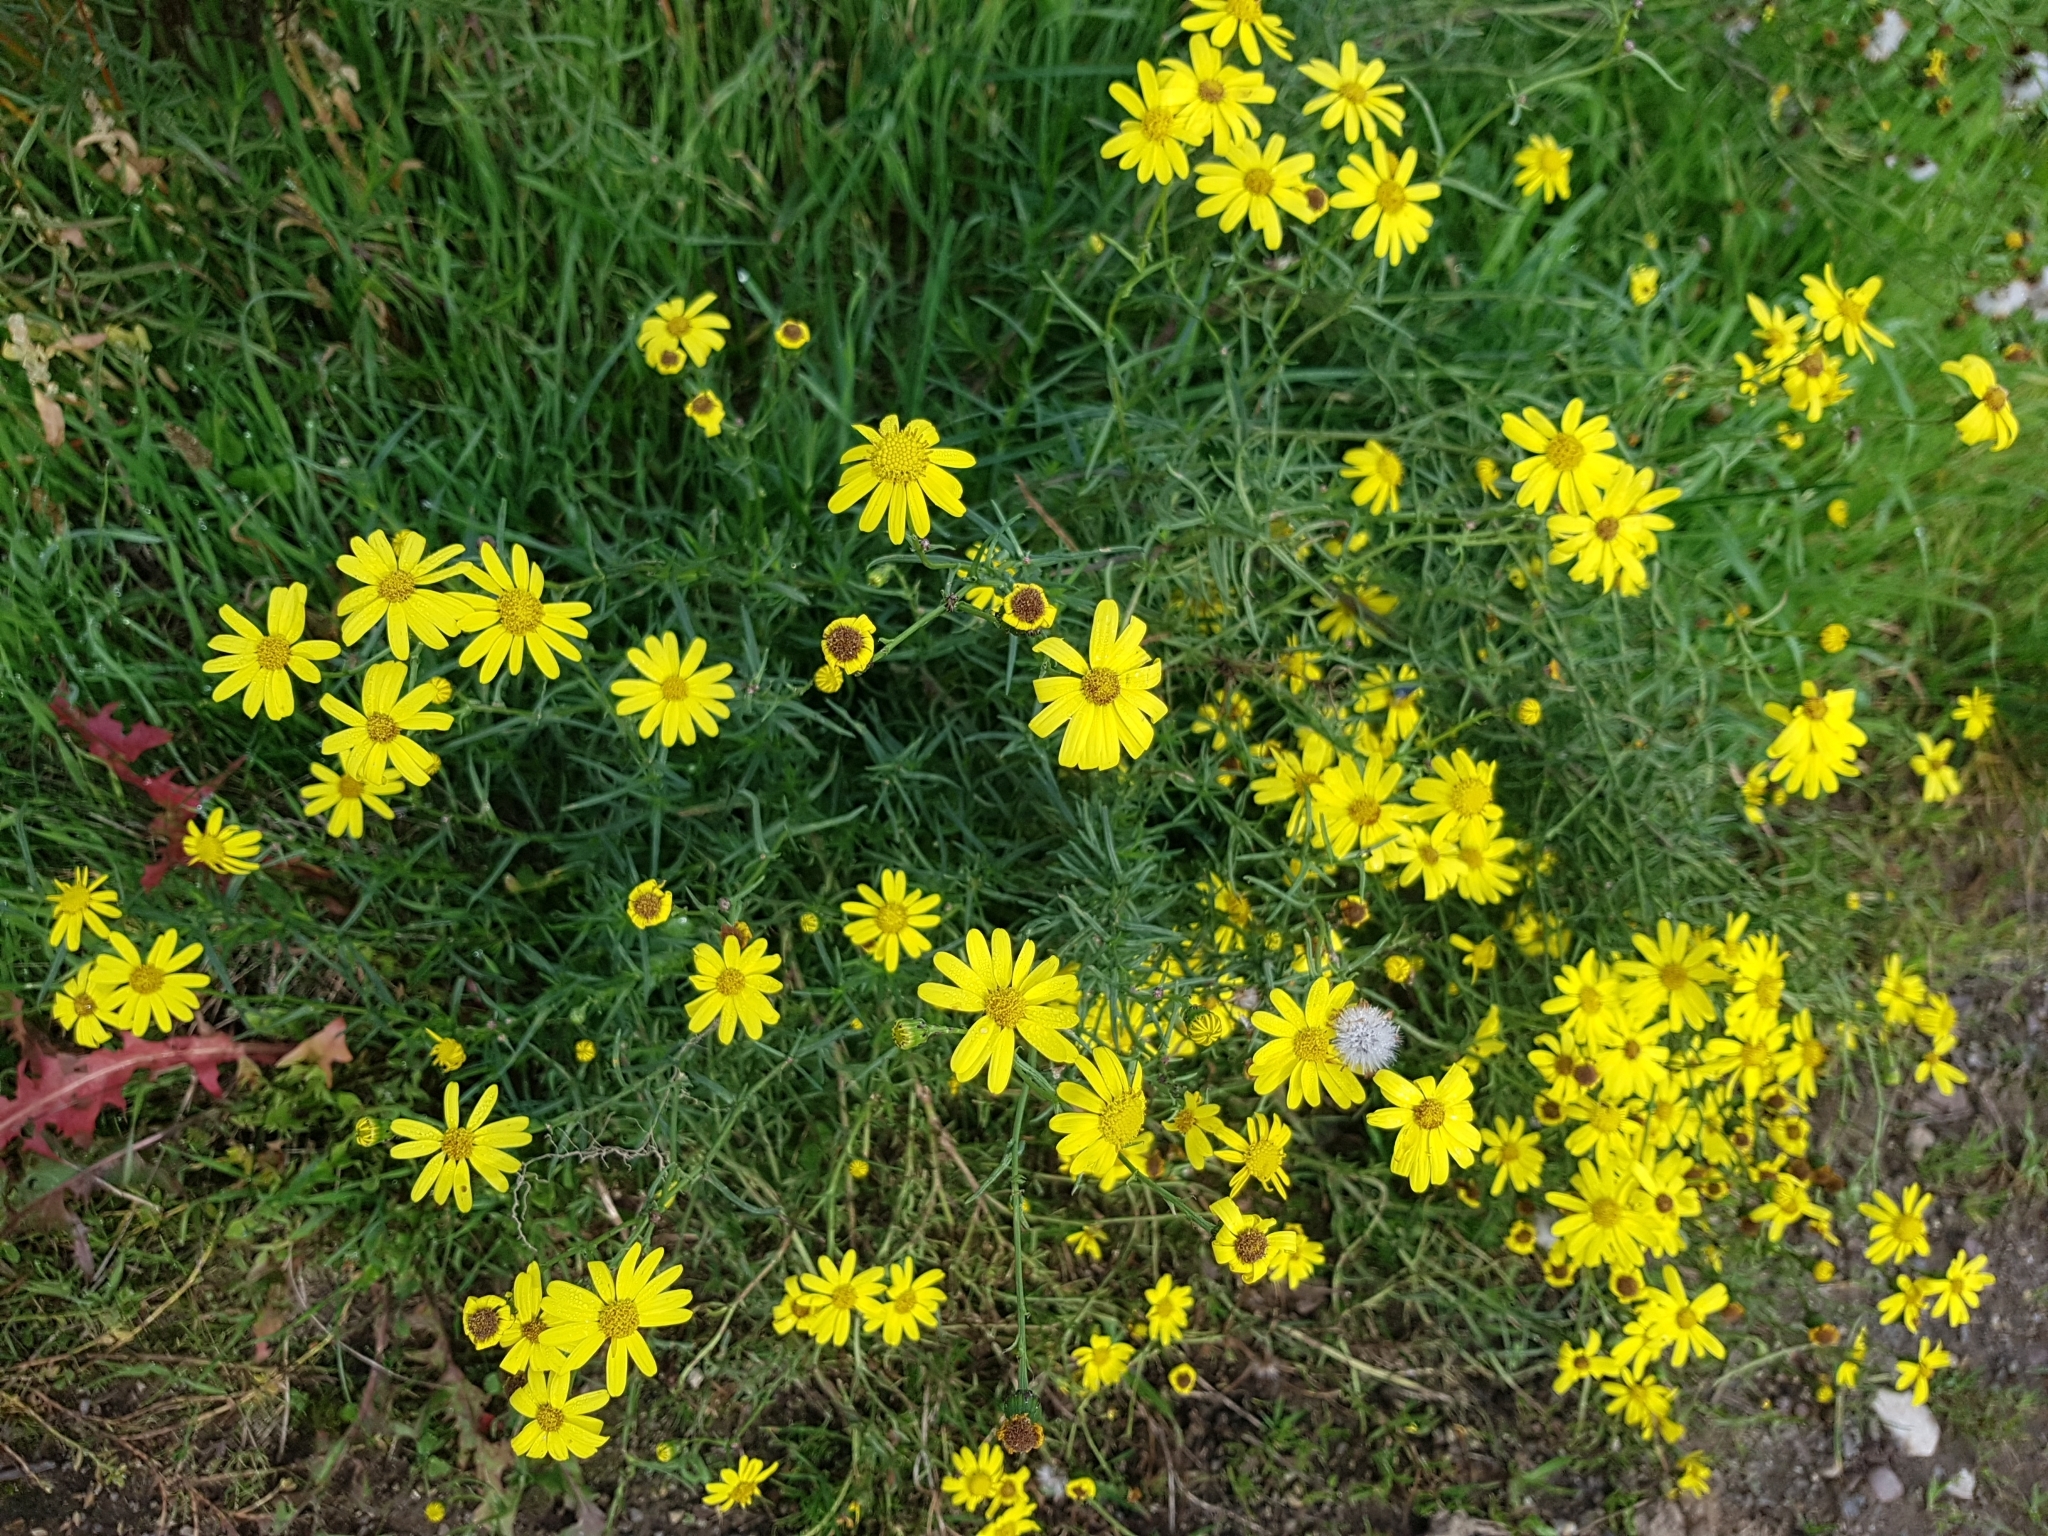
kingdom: Plantae
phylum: Tracheophyta
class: Magnoliopsida
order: Asterales
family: Asteraceae
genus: Senecio
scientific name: Senecio inaequidens
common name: Narrow-leaved ragwort
